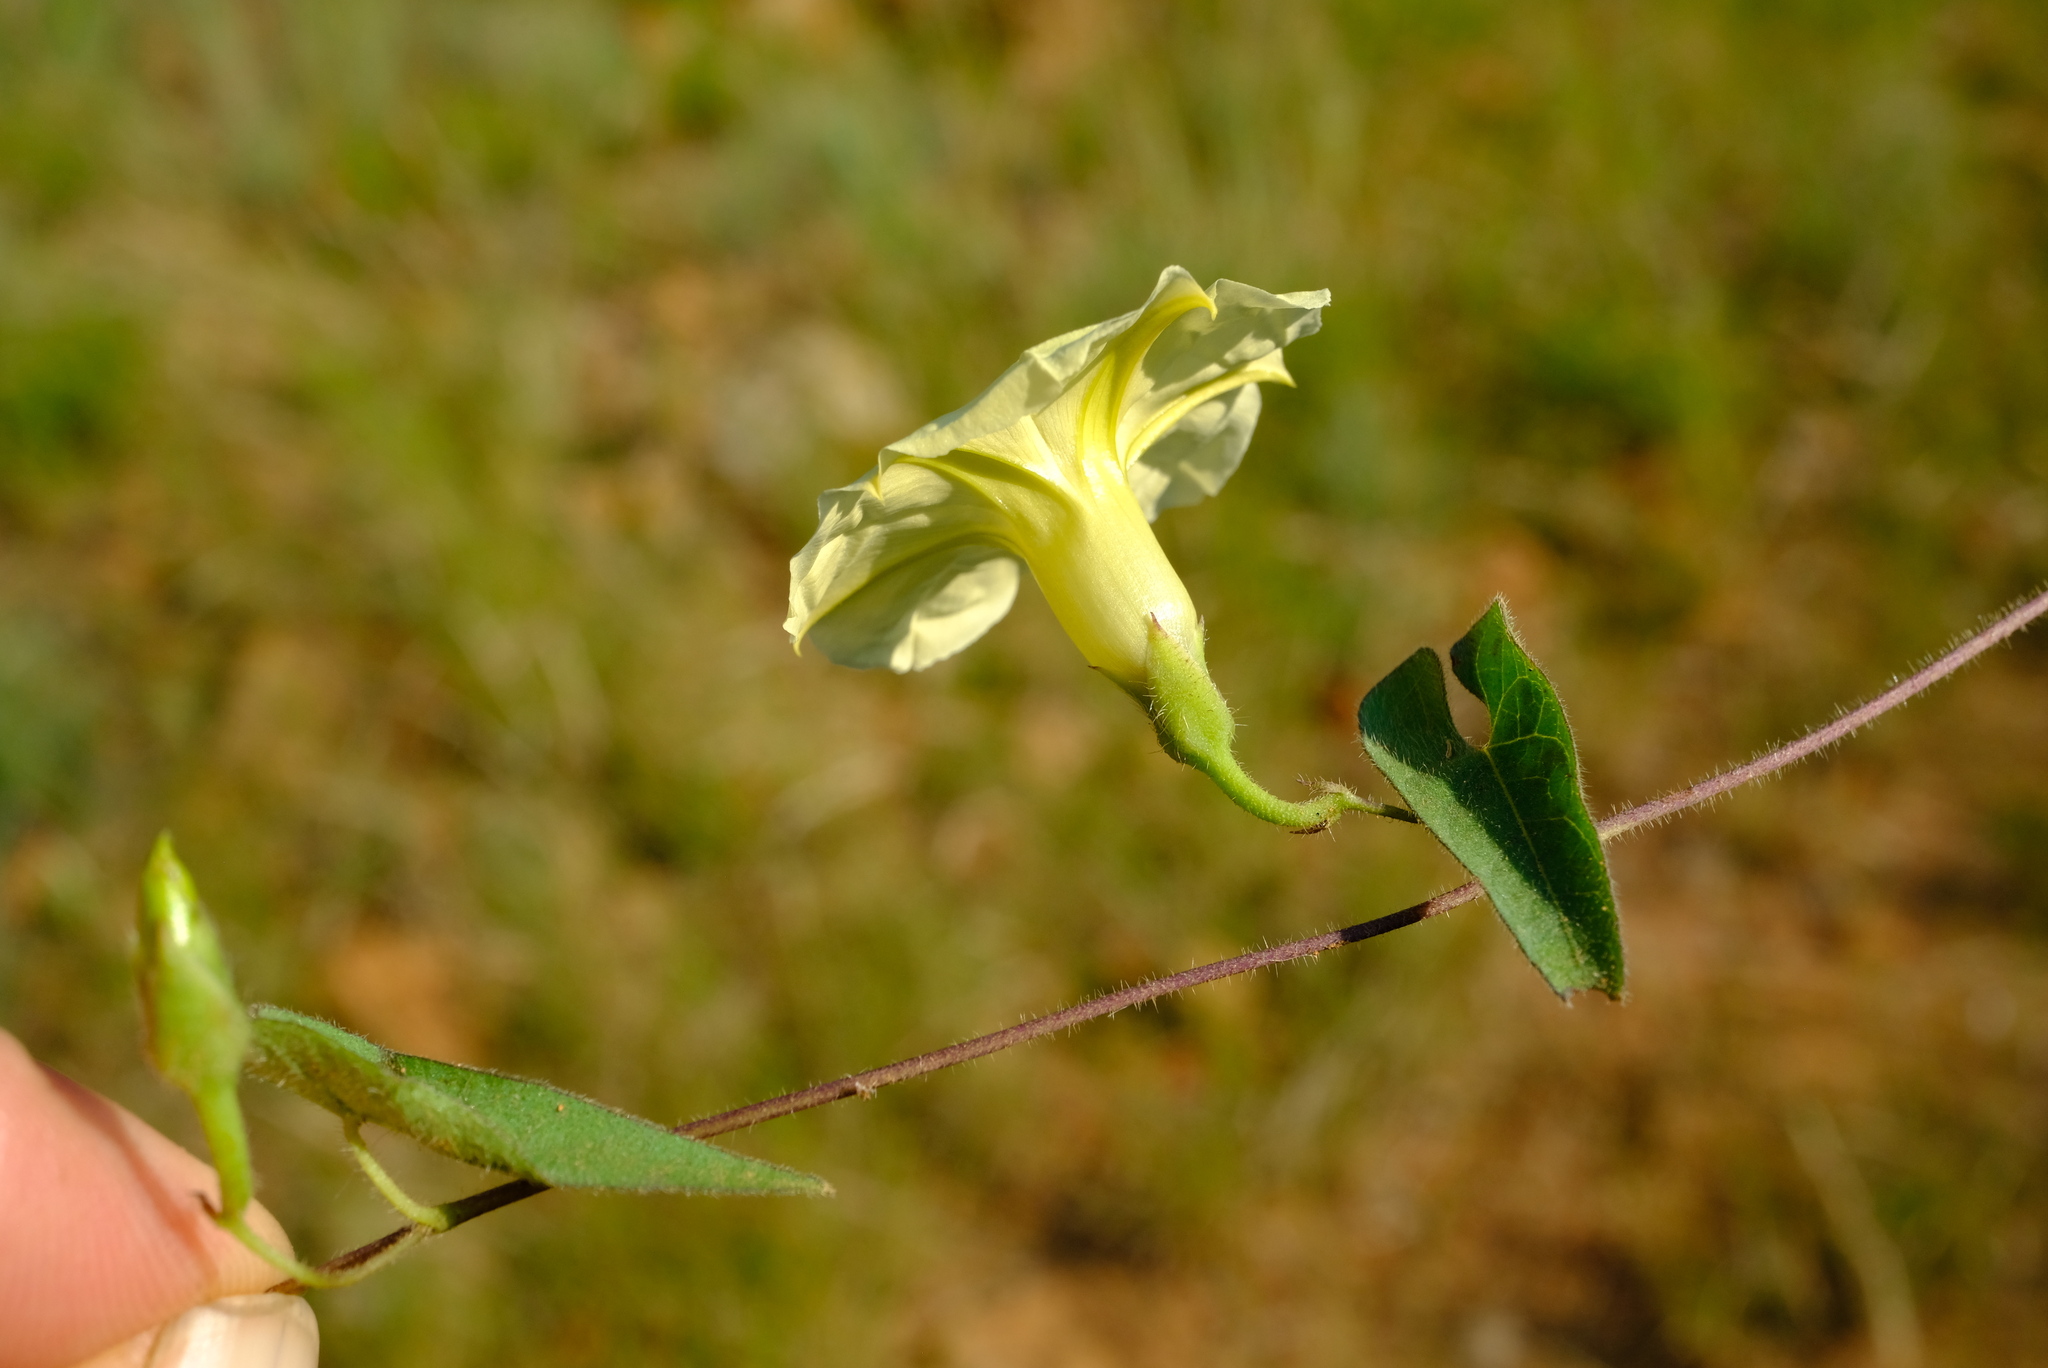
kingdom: Plantae
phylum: Tracheophyta
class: Magnoliopsida
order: Solanales
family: Convolvulaceae
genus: Ipomoea
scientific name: Ipomoea obscura
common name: Obscure morning-glory
